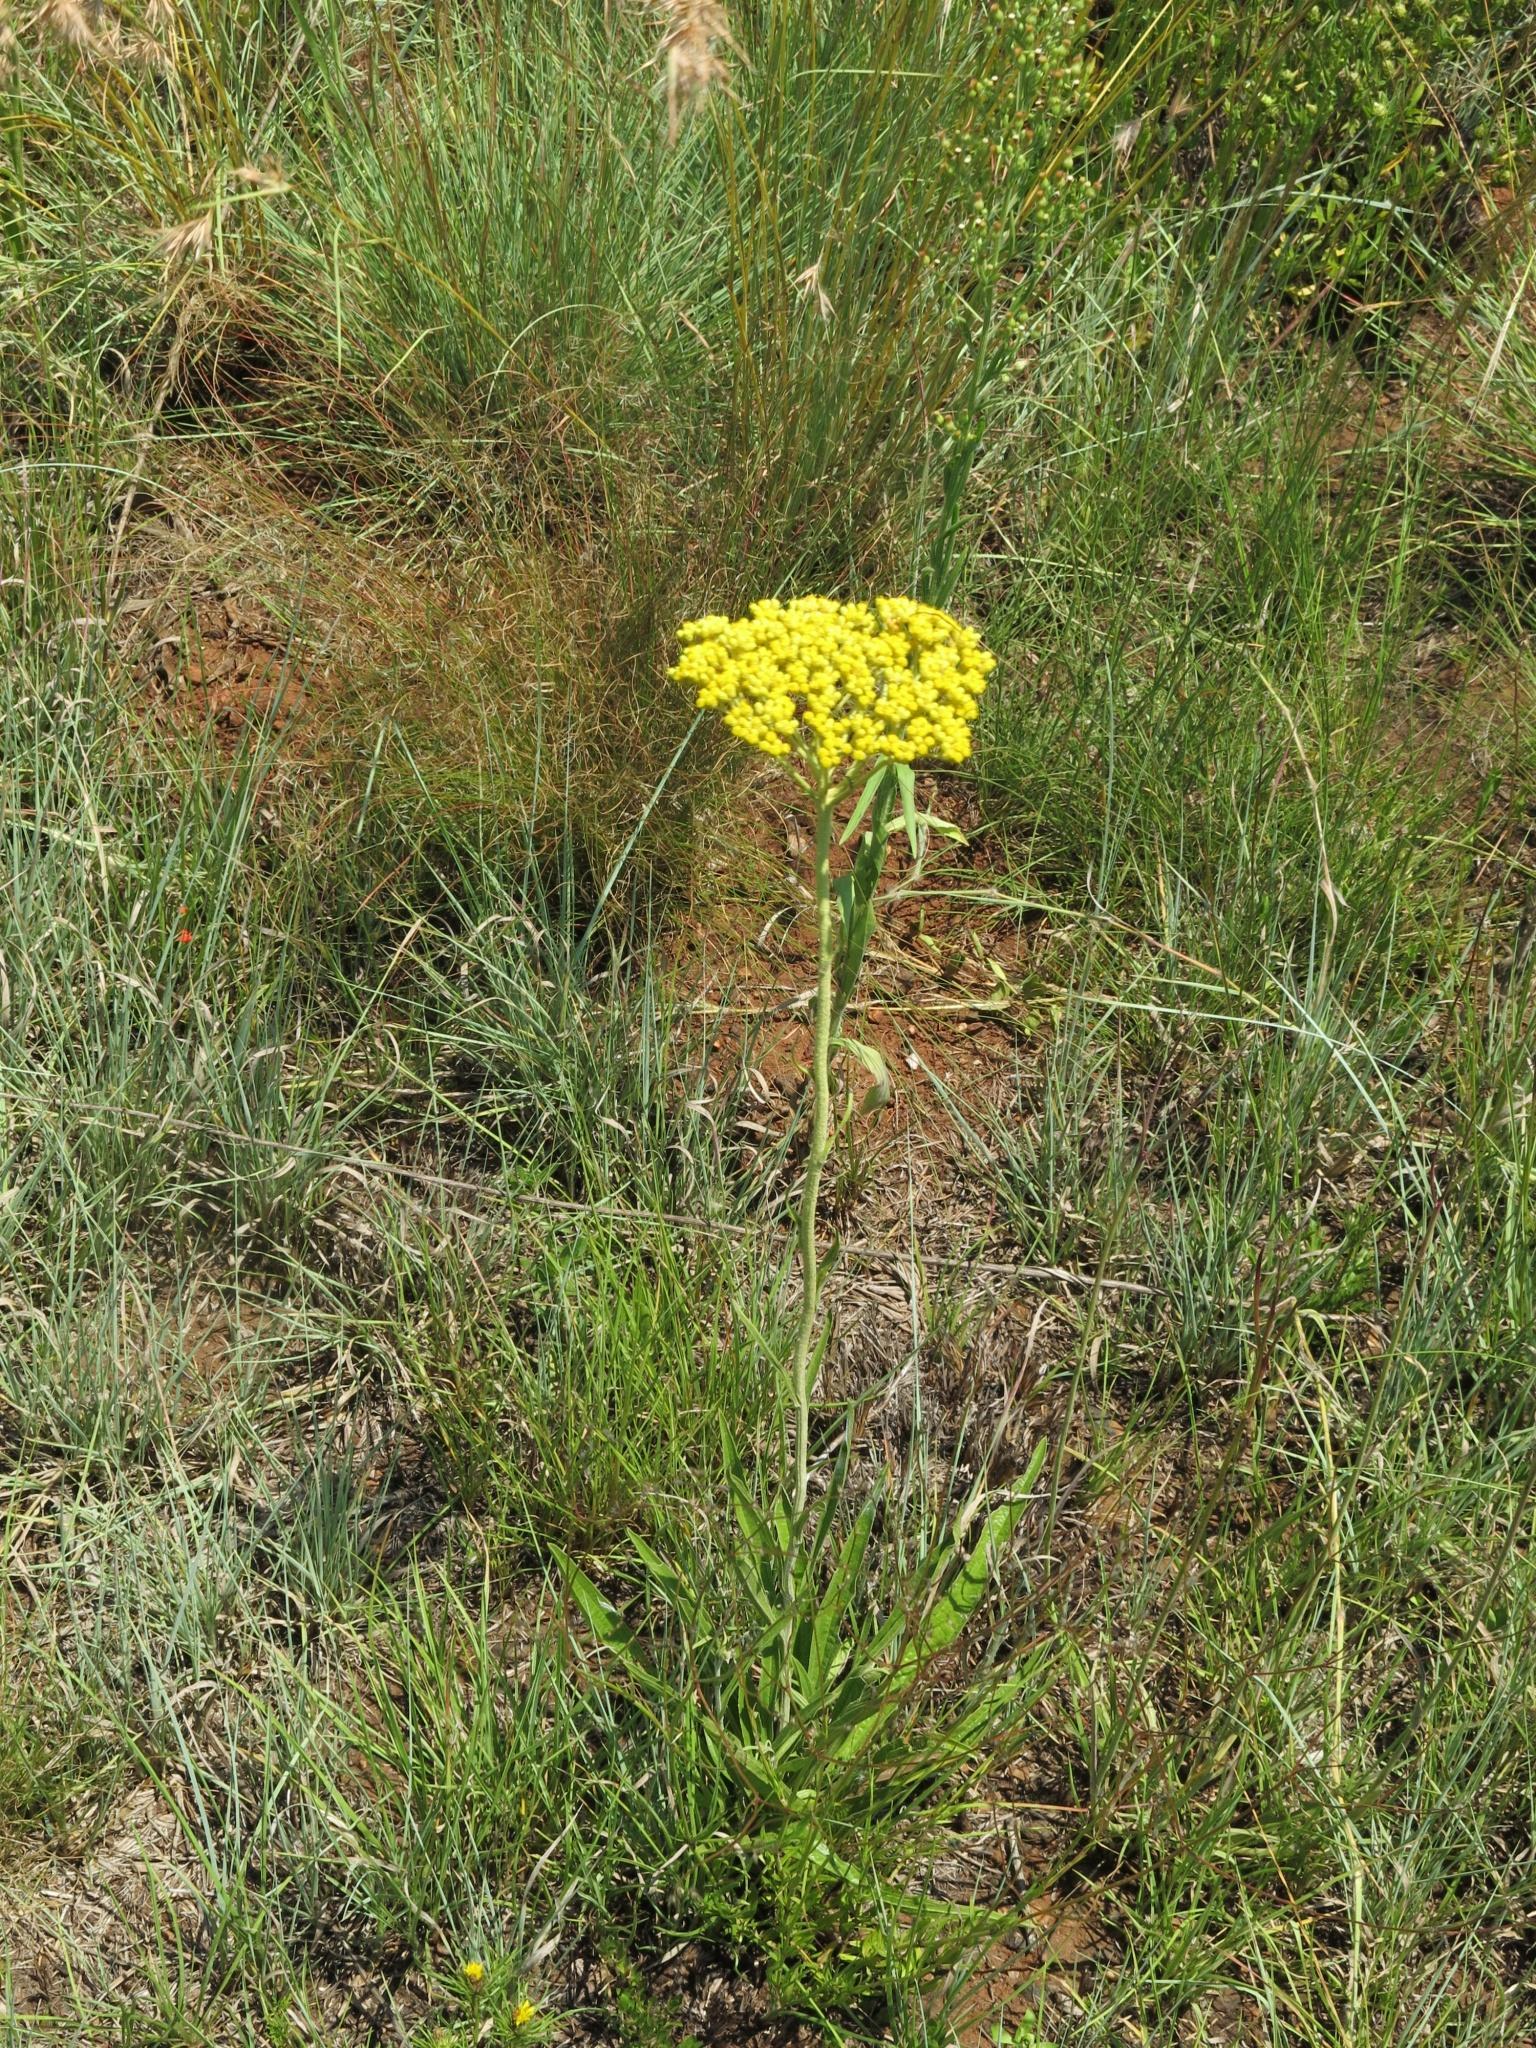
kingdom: Plantae
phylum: Tracheophyta
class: Magnoliopsida
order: Asterales
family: Asteraceae
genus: Helichrysum
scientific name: Helichrysum nudifolium
